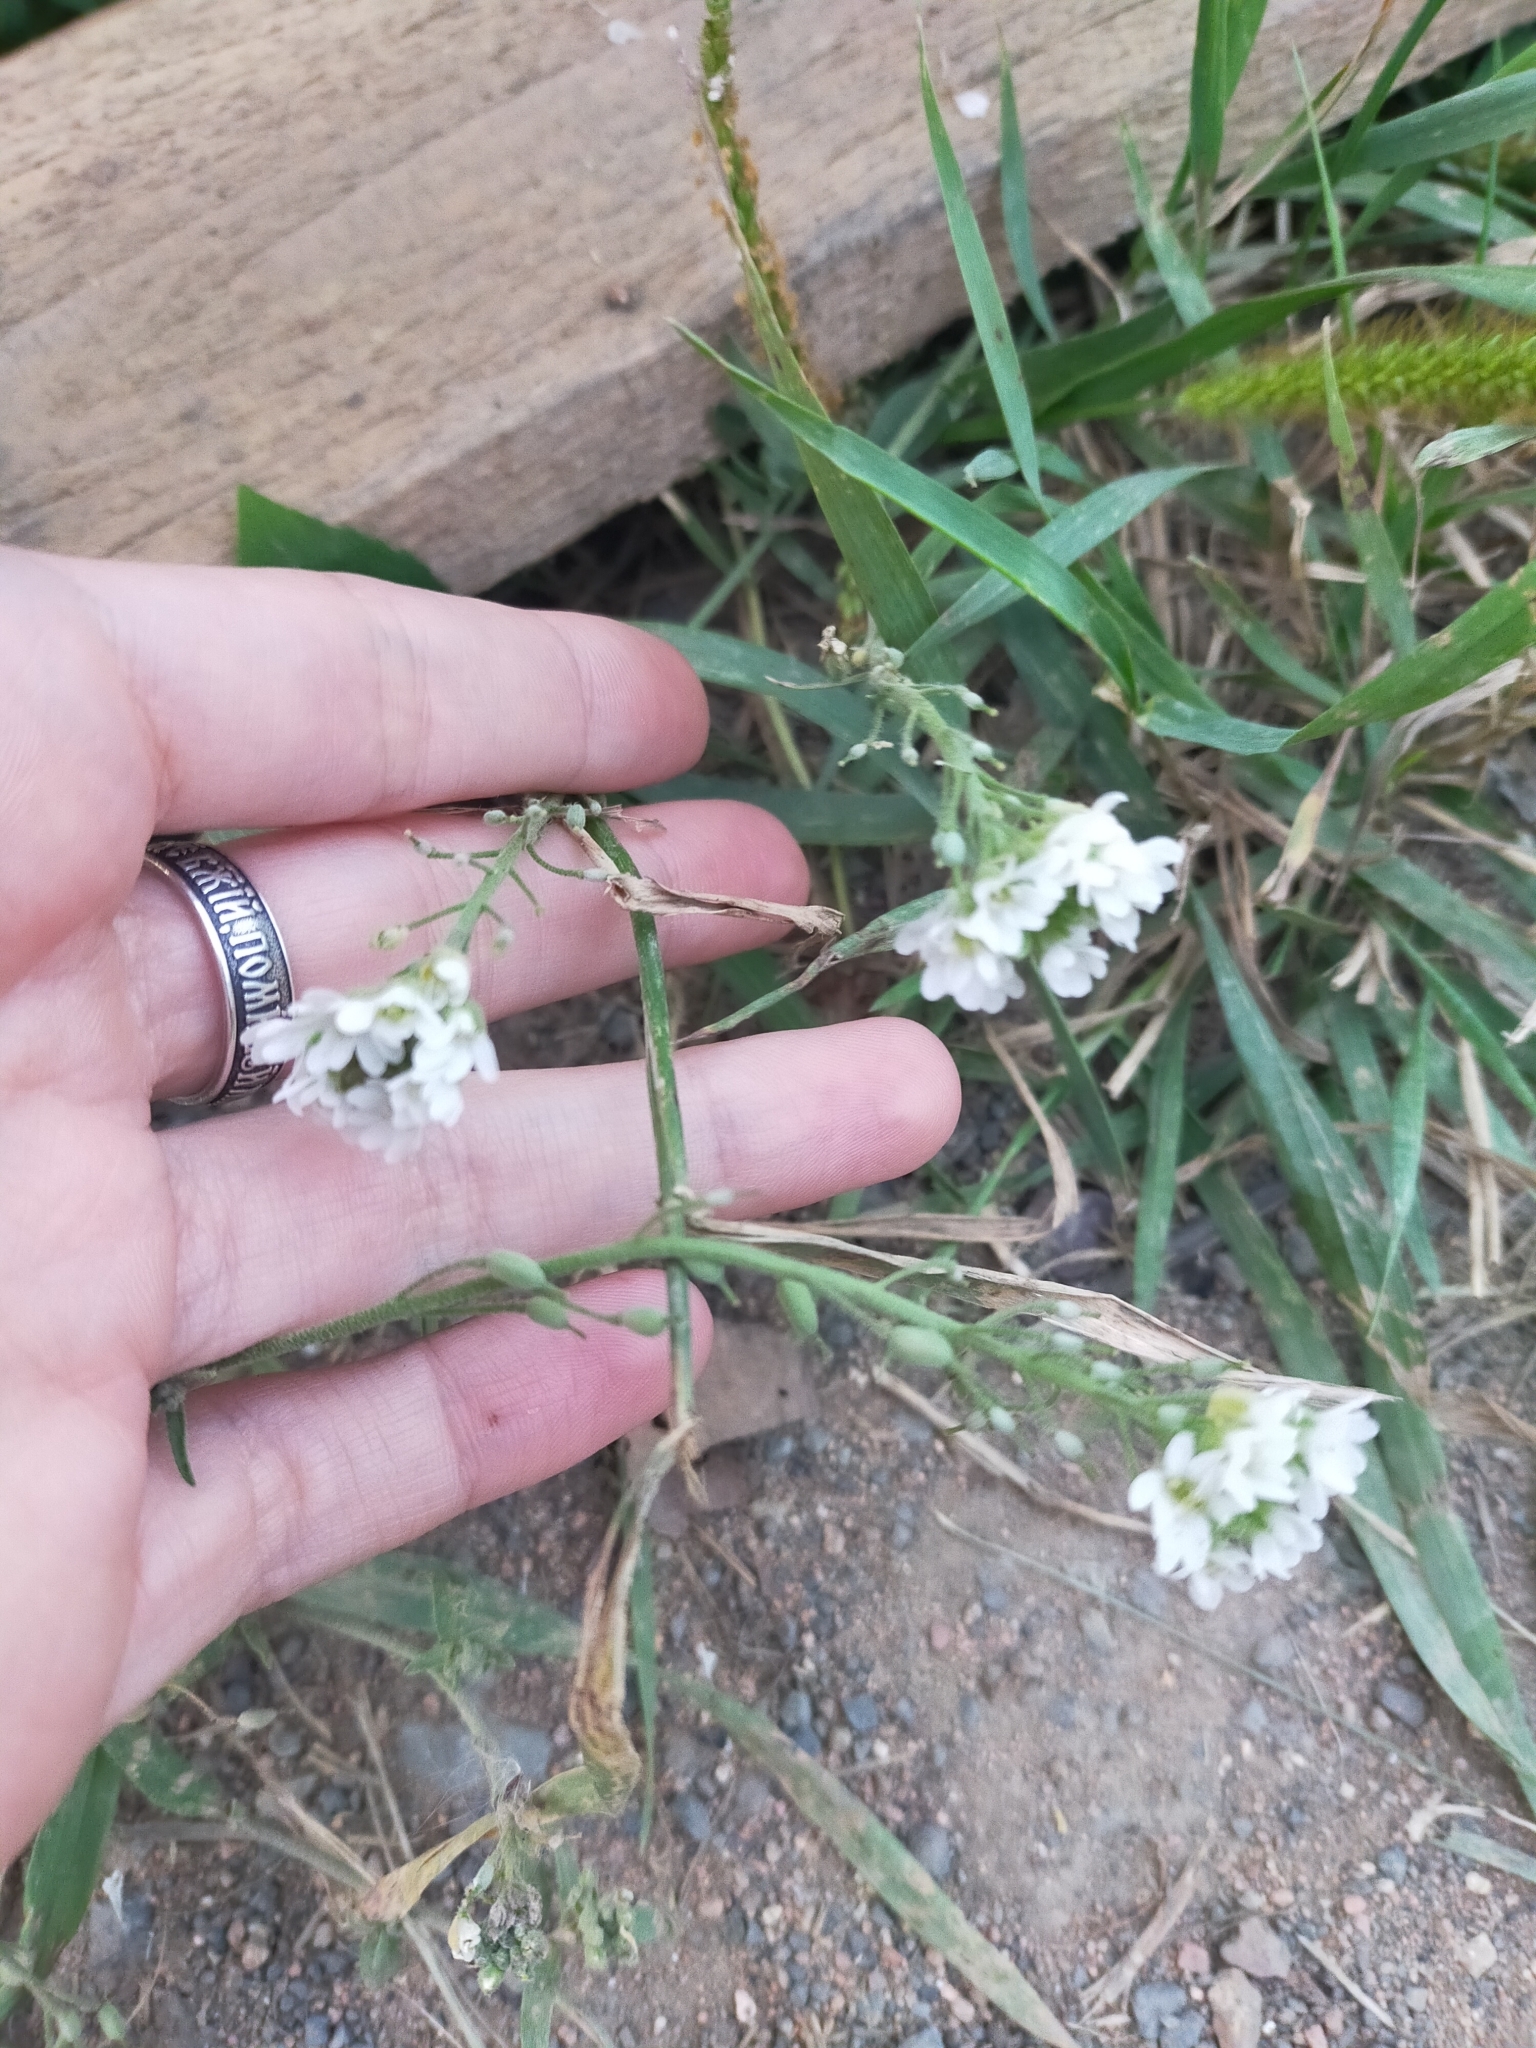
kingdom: Plantae
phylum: Tracheophyta
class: Magnoliopsida
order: Brassicales
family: Brassicaceae
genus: Berteroa
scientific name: Berteroa incana
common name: Hoary alison
